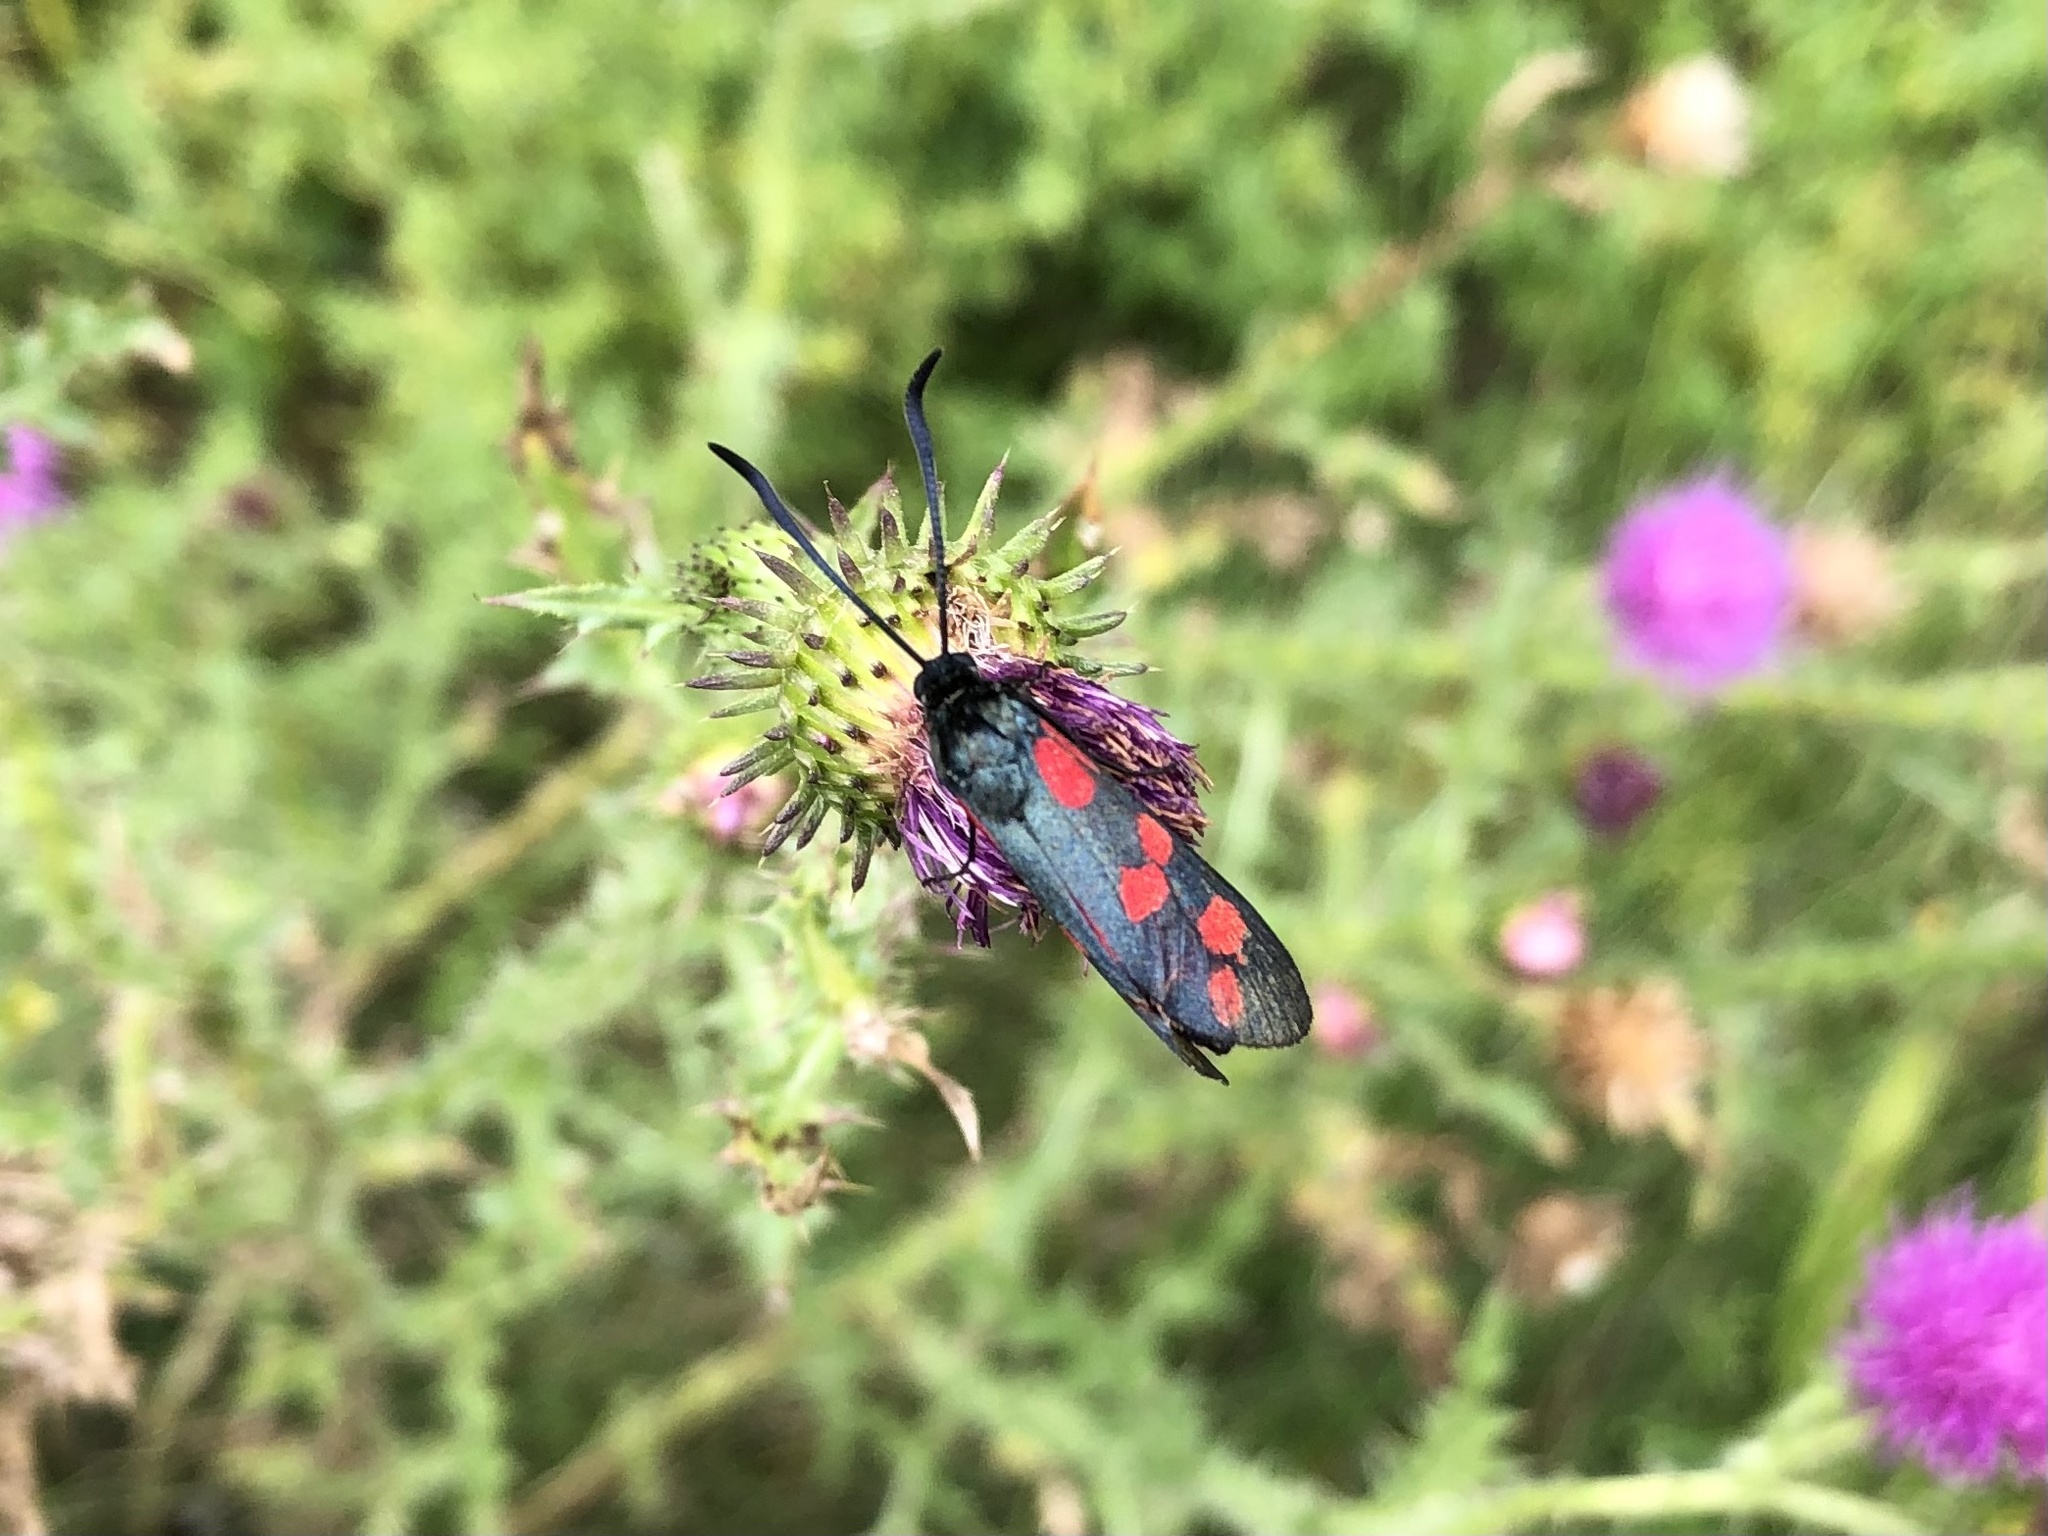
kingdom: Animalia
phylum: Arthropoda
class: Insecta
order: Lepidoptera
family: Zygaenidae
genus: Zygaena
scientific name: Zygaena filipendulae
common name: Six-spot burnet
